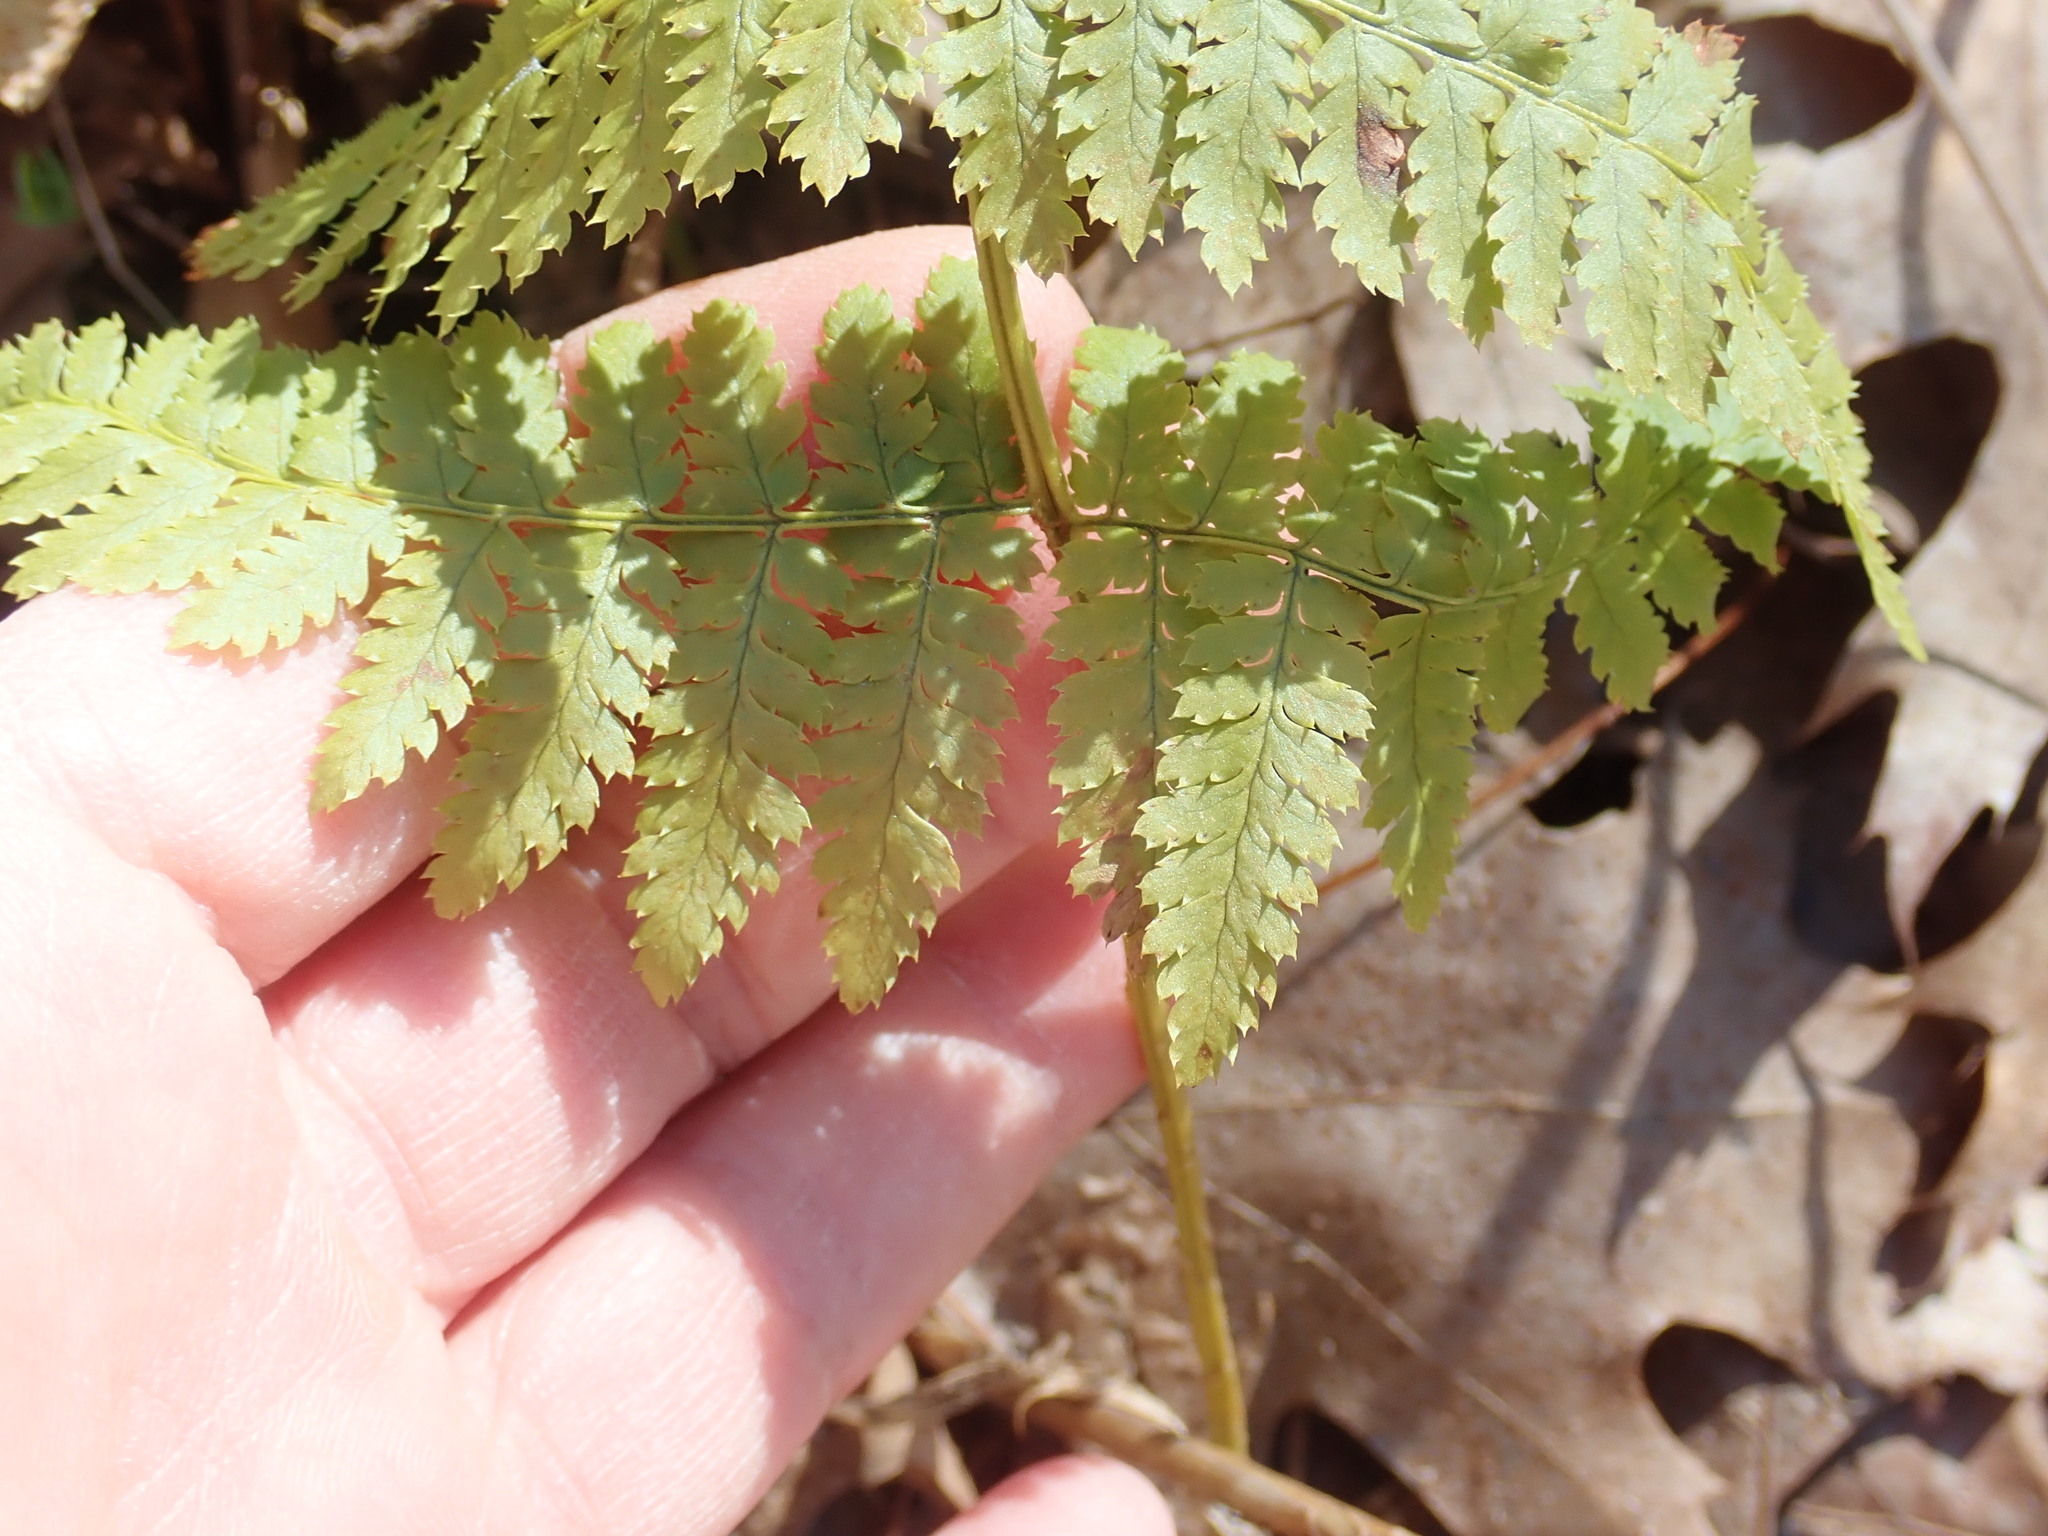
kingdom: Plantae
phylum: Tracheophyta
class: Polypodiopsida
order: Polypodiales
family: Dryopteridaceae
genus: Dryopteris
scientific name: Dryopteris intermedia
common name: Evergreen wood fern
